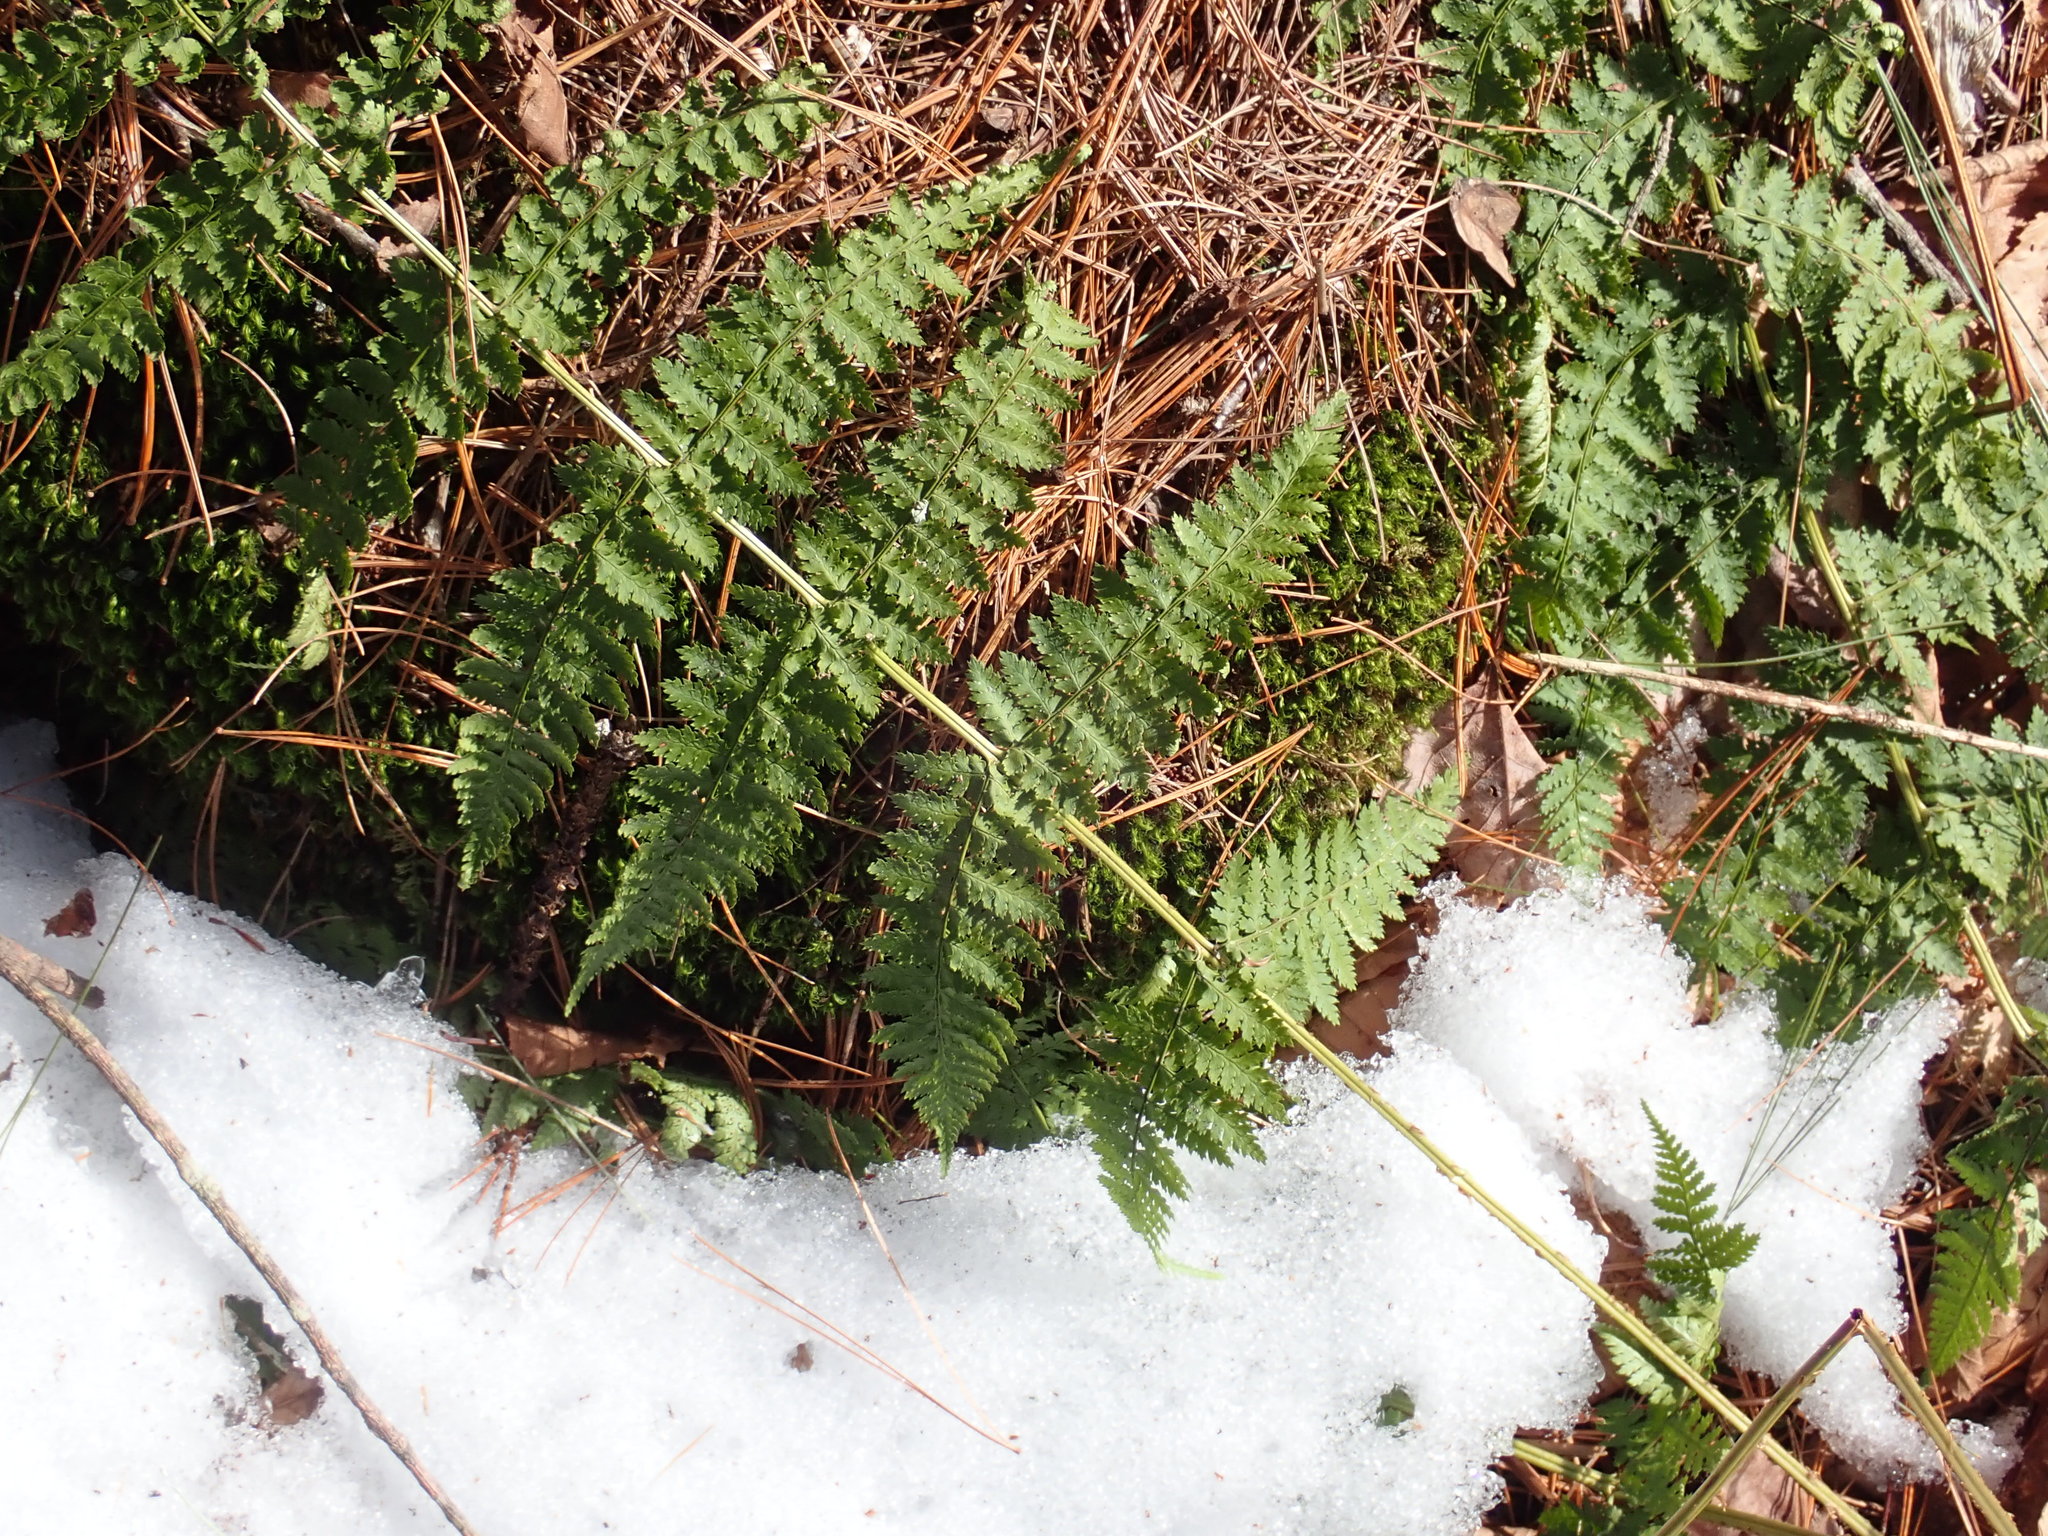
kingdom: Plantae
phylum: Tracheophyta
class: Polypodiopsida
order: Polypodiales
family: Dryopteridaceae
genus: Dryopteris
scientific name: Dryopteris intermedia
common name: Evergreen wood fern
